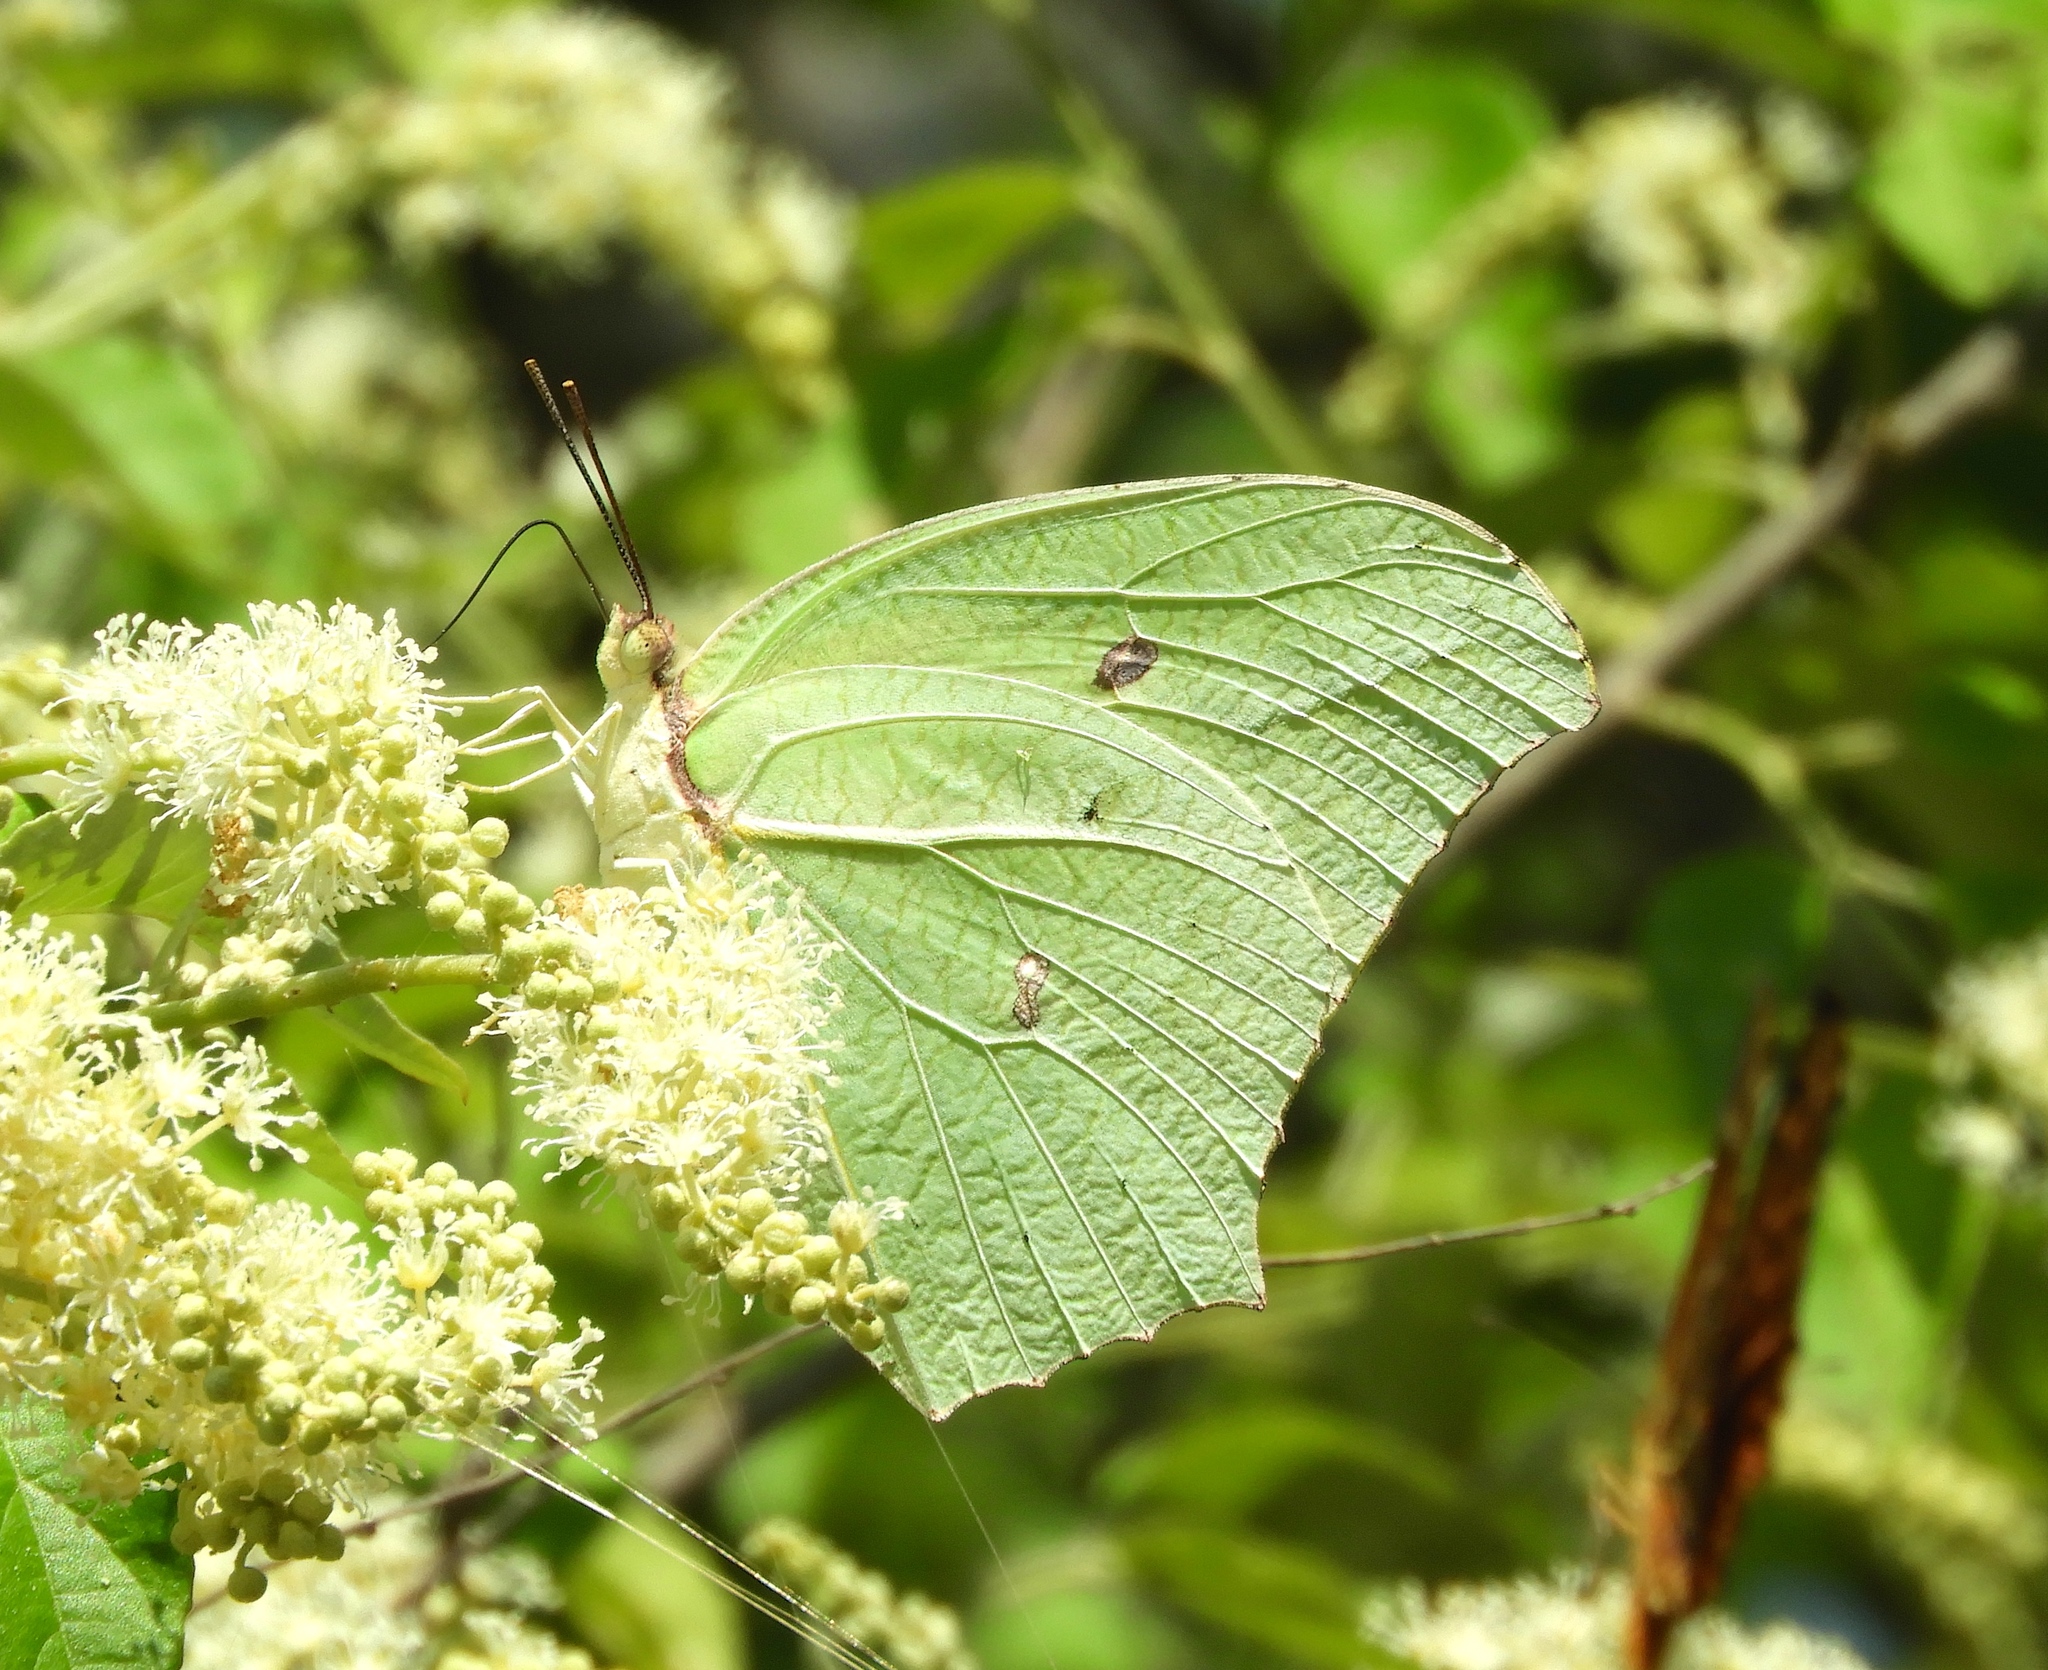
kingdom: Animalia
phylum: Arthropoda
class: Insecta
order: Lepidoptera
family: Pieridae
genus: Anteos
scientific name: Anteos maerula
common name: Angled sulphur
